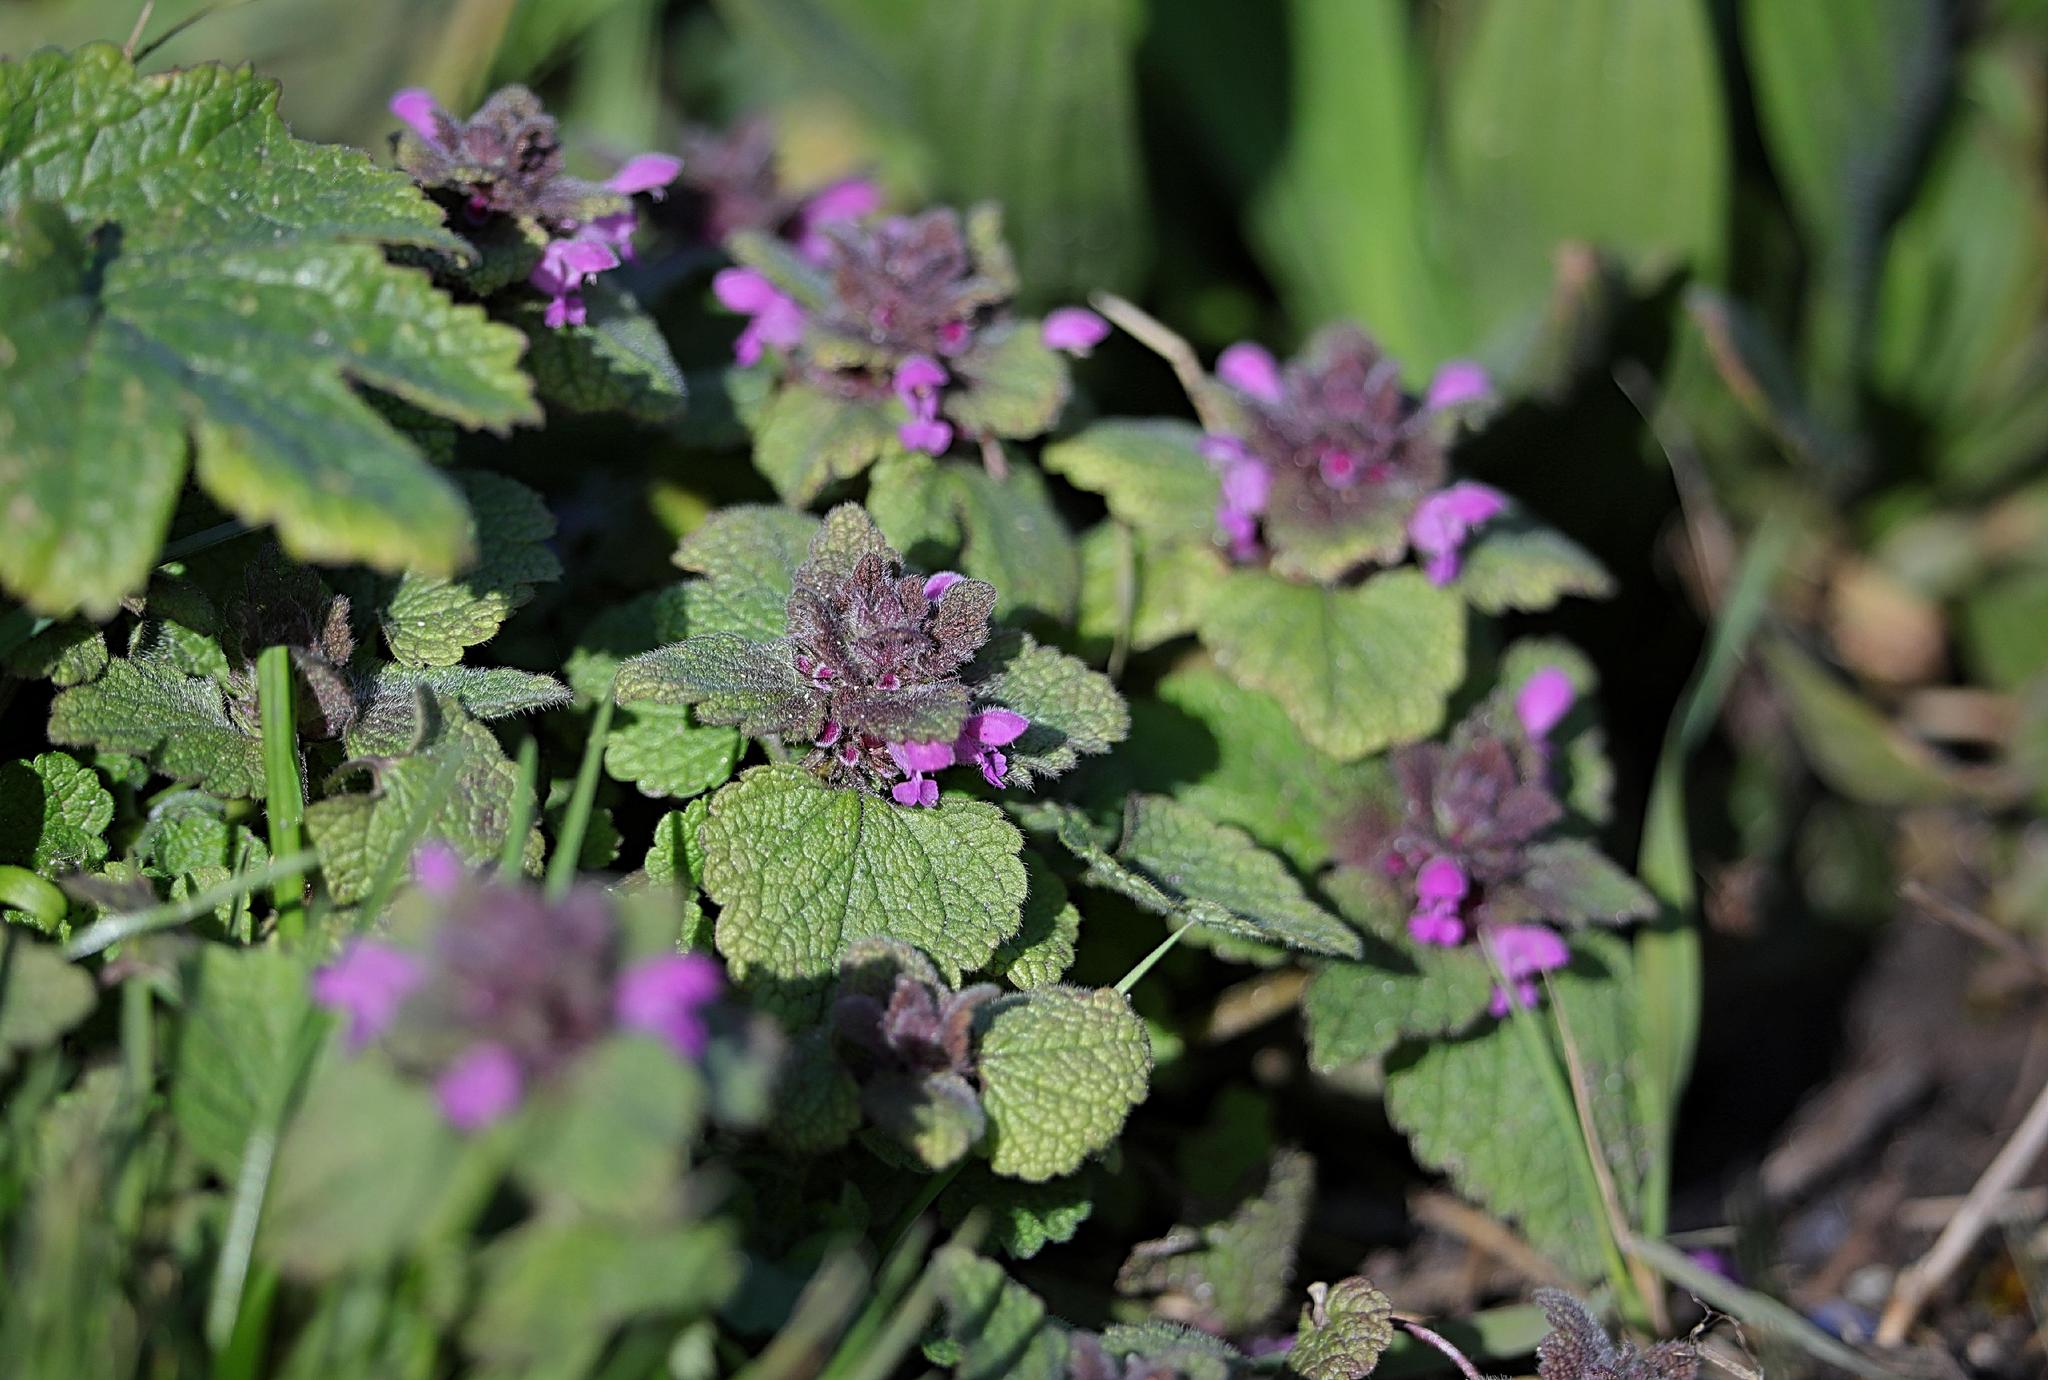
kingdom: Plantae
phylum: Tracheophyta
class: Magnoliopsida
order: Lamiales
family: Lamiaceae
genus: Lamium
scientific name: Lamium purpureum
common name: Red dead-nettle
